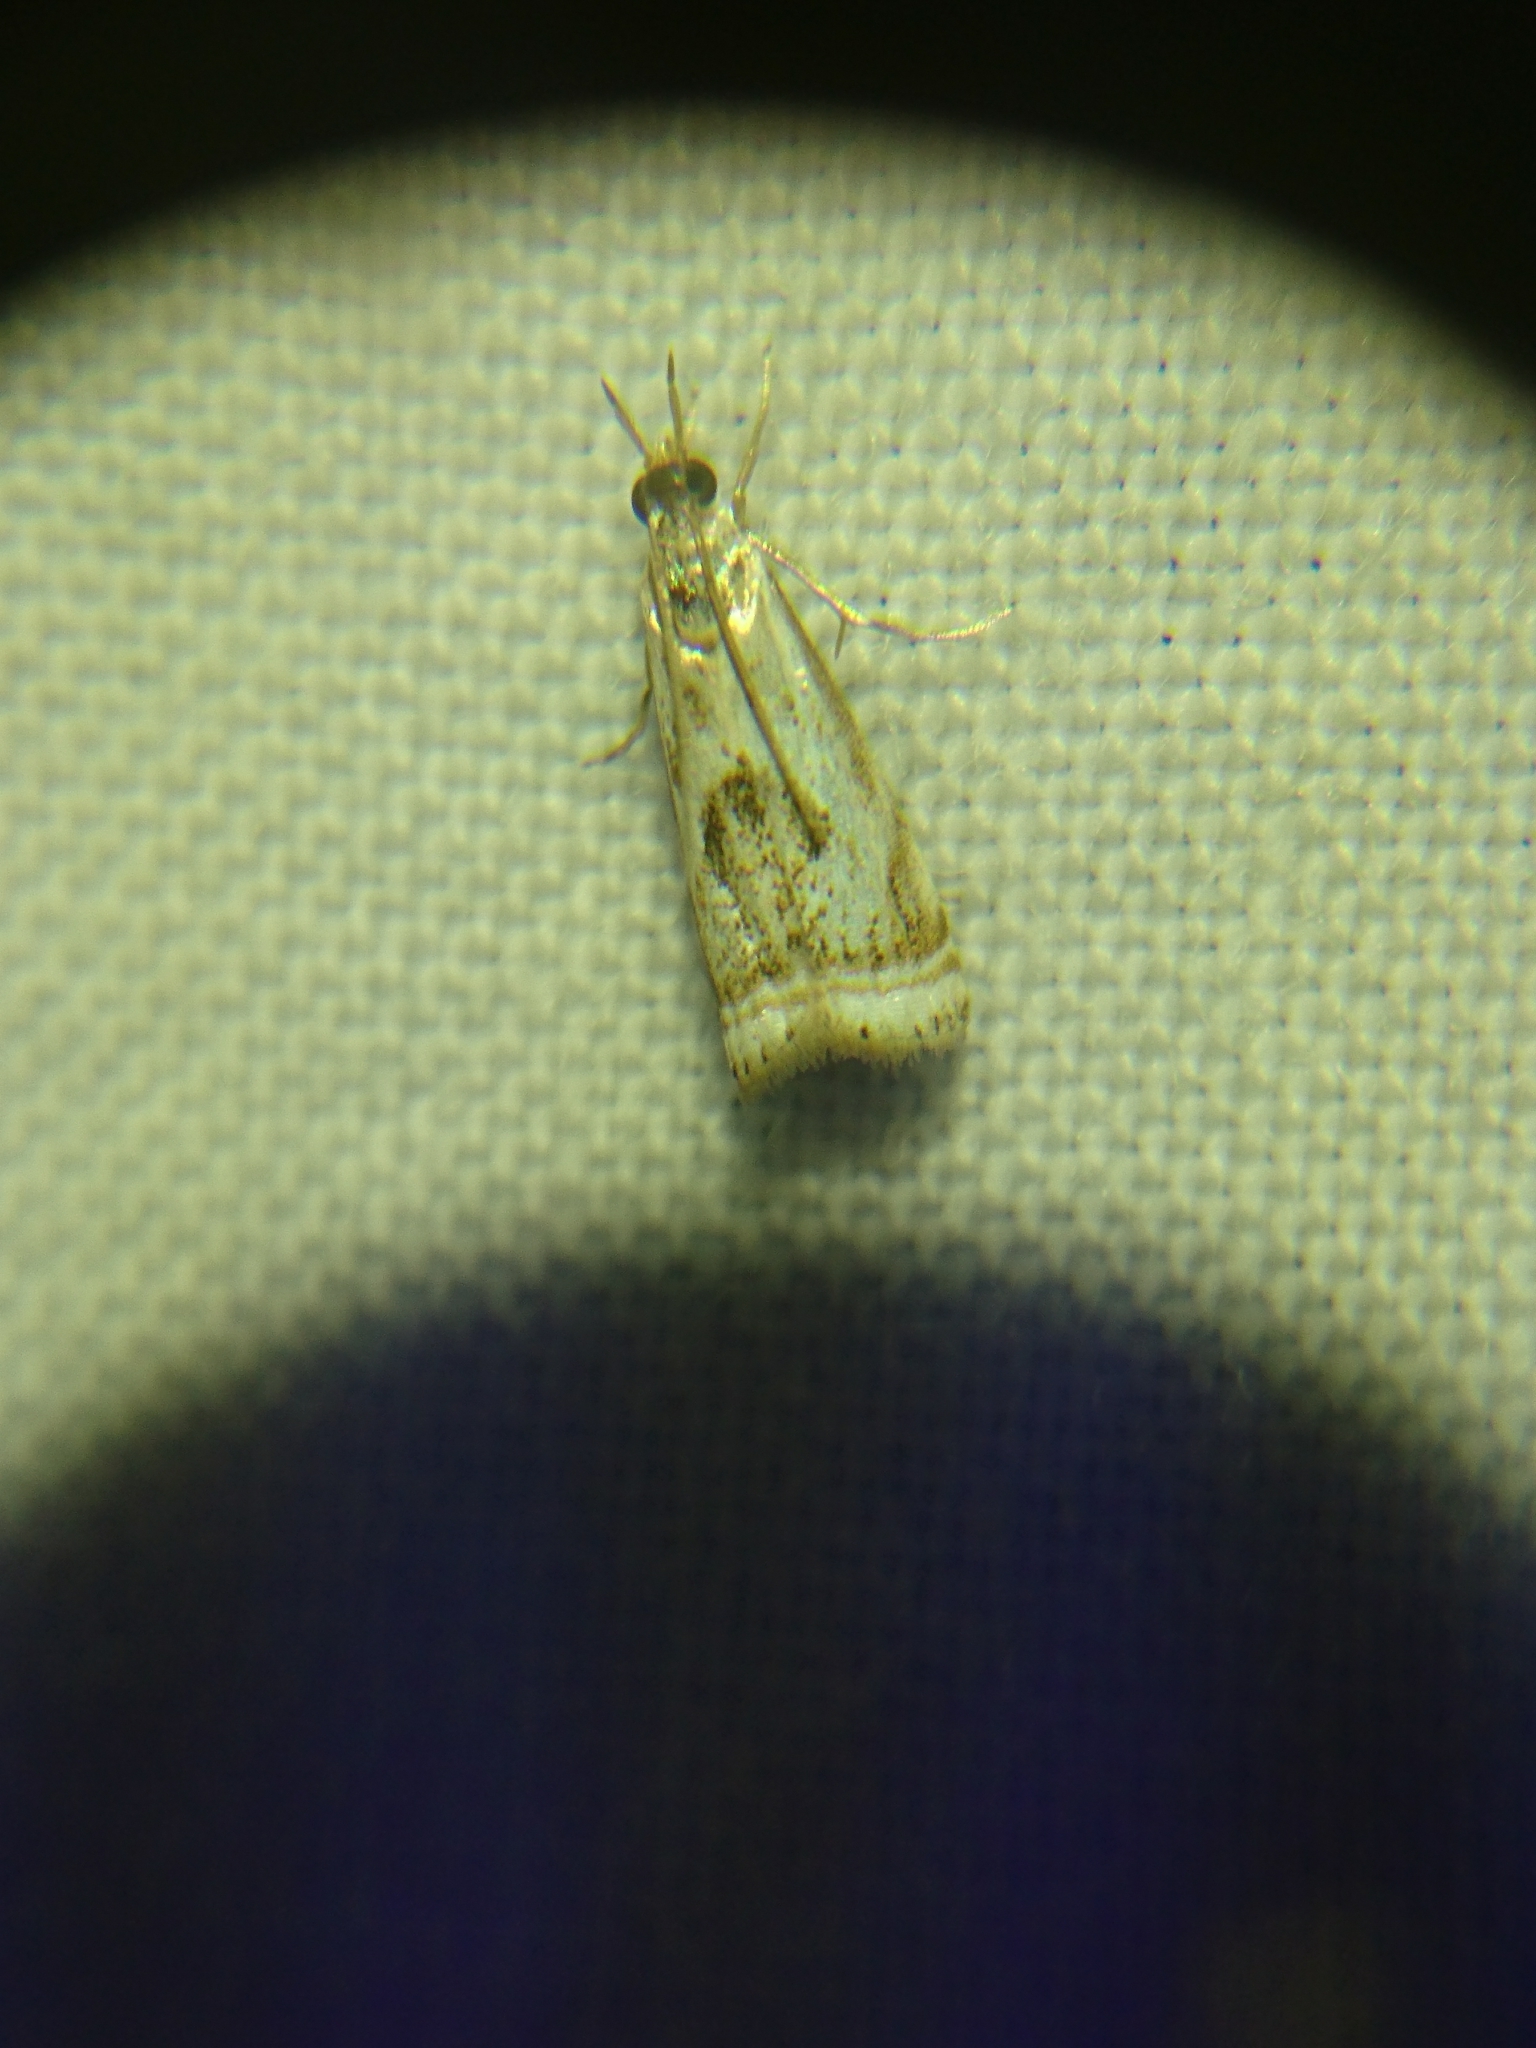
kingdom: Animalia
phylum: Arthropoda
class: Insecta
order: Lepidoptera
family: Crambidae
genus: Microcrambus
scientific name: Microcrambus elegans
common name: Elegant grass-veneer
